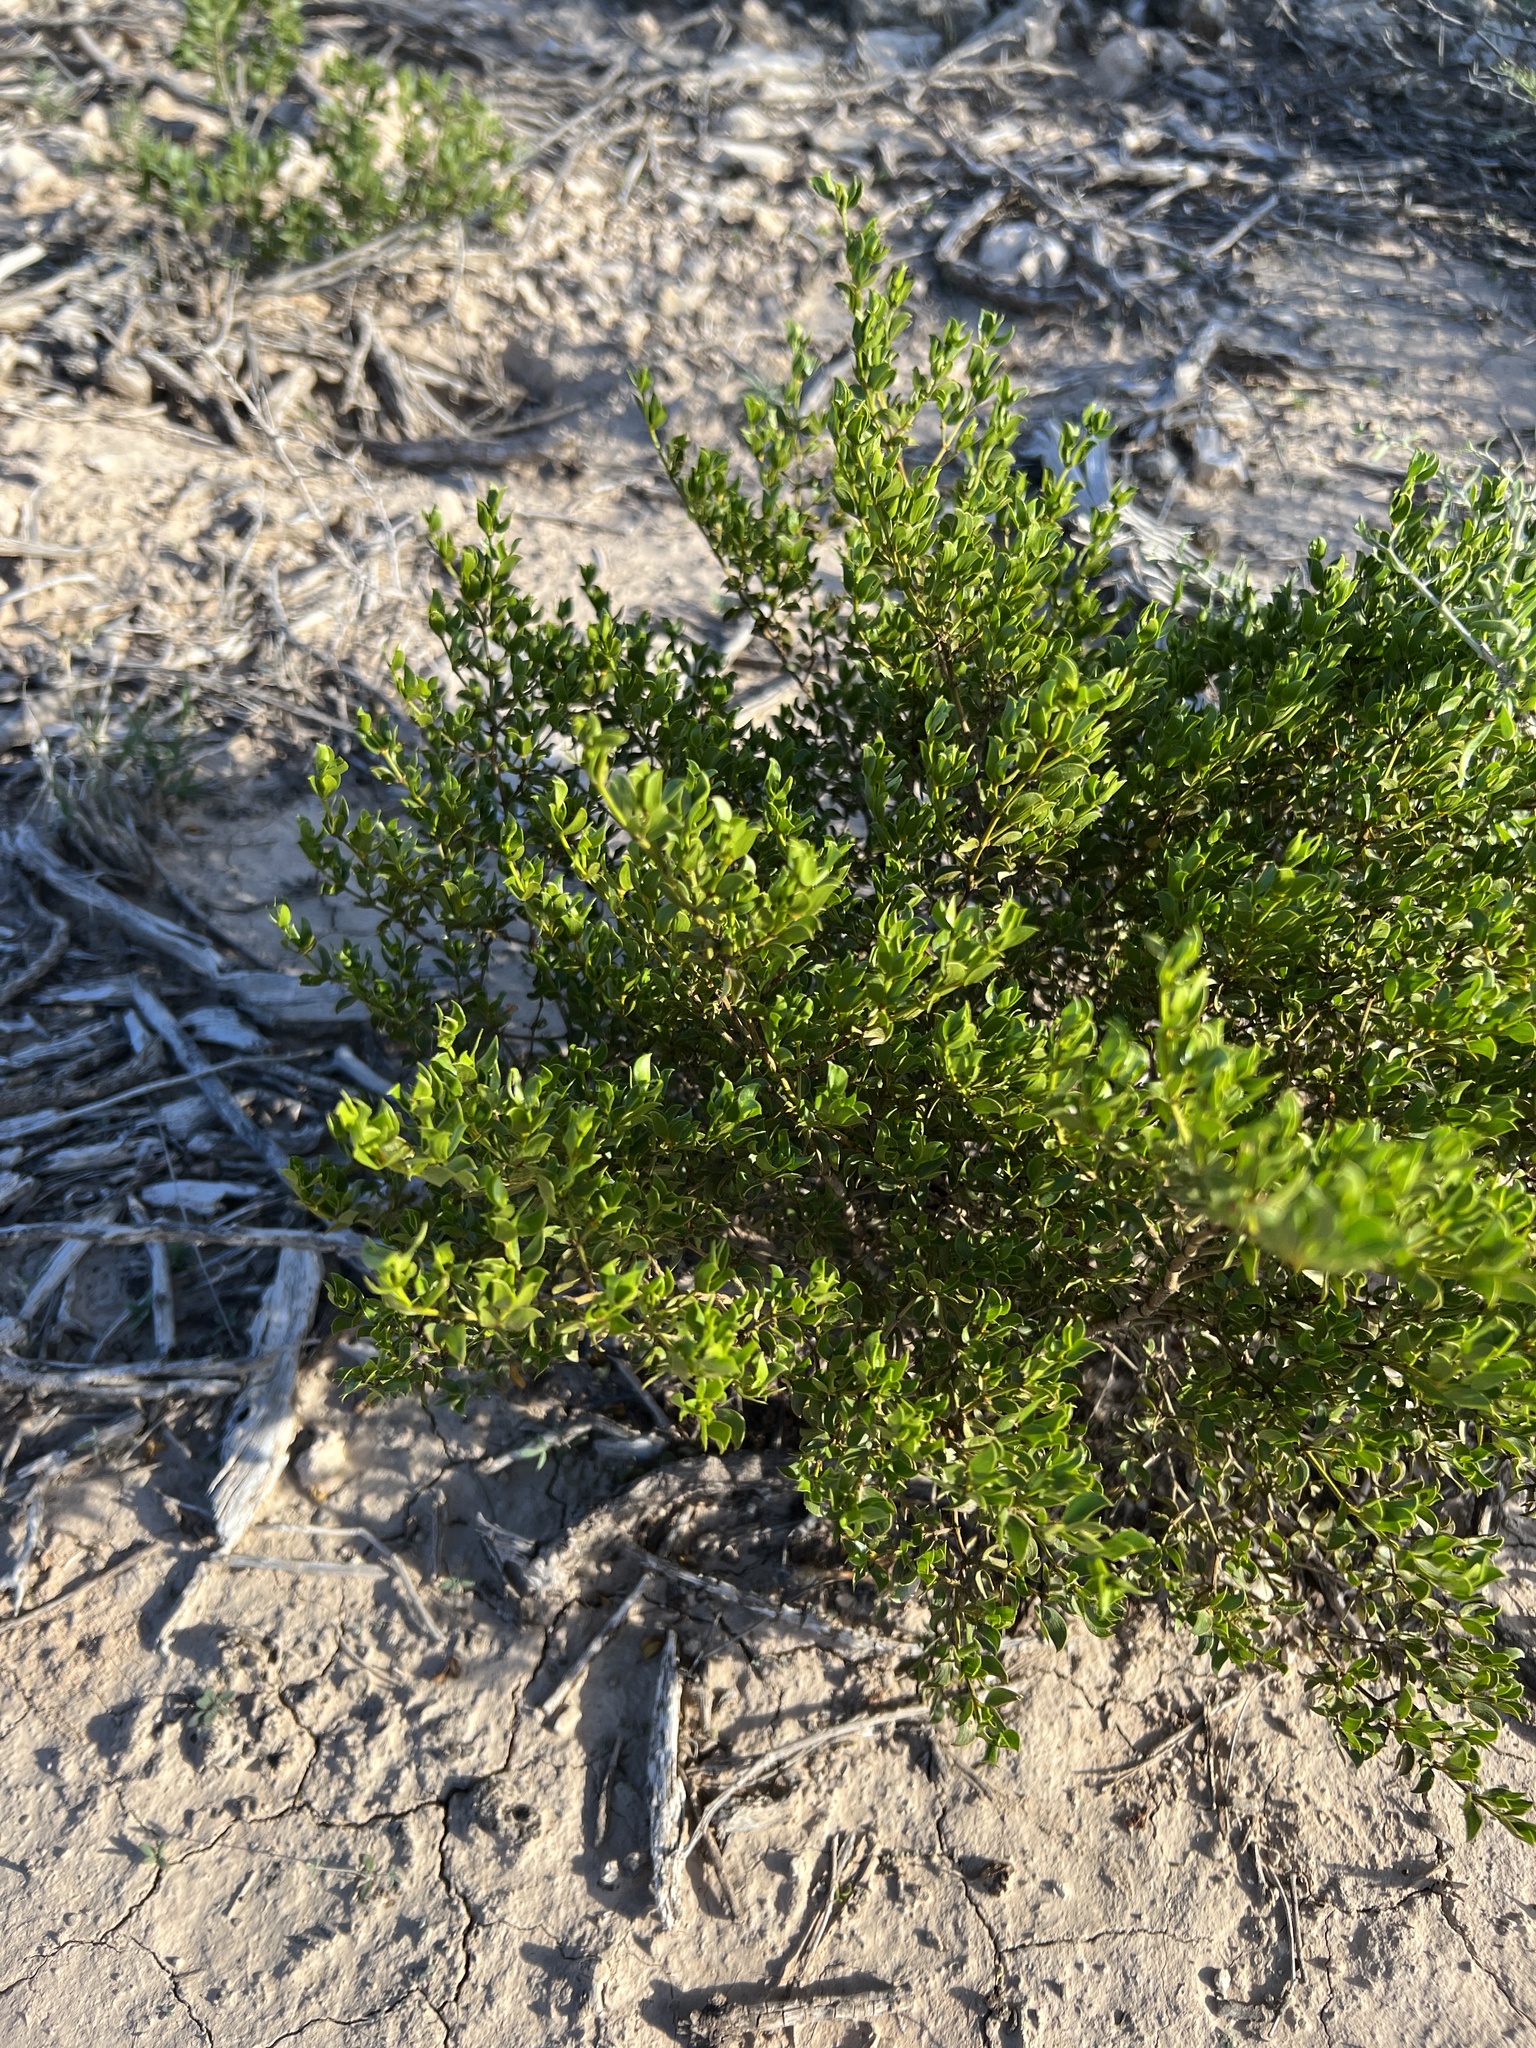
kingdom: Plantae
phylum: Tracheophyta
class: Magnoliopsida
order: Zygophyllales
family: Zygophyllaceae
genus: Larrea
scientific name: Larrea tridentata
